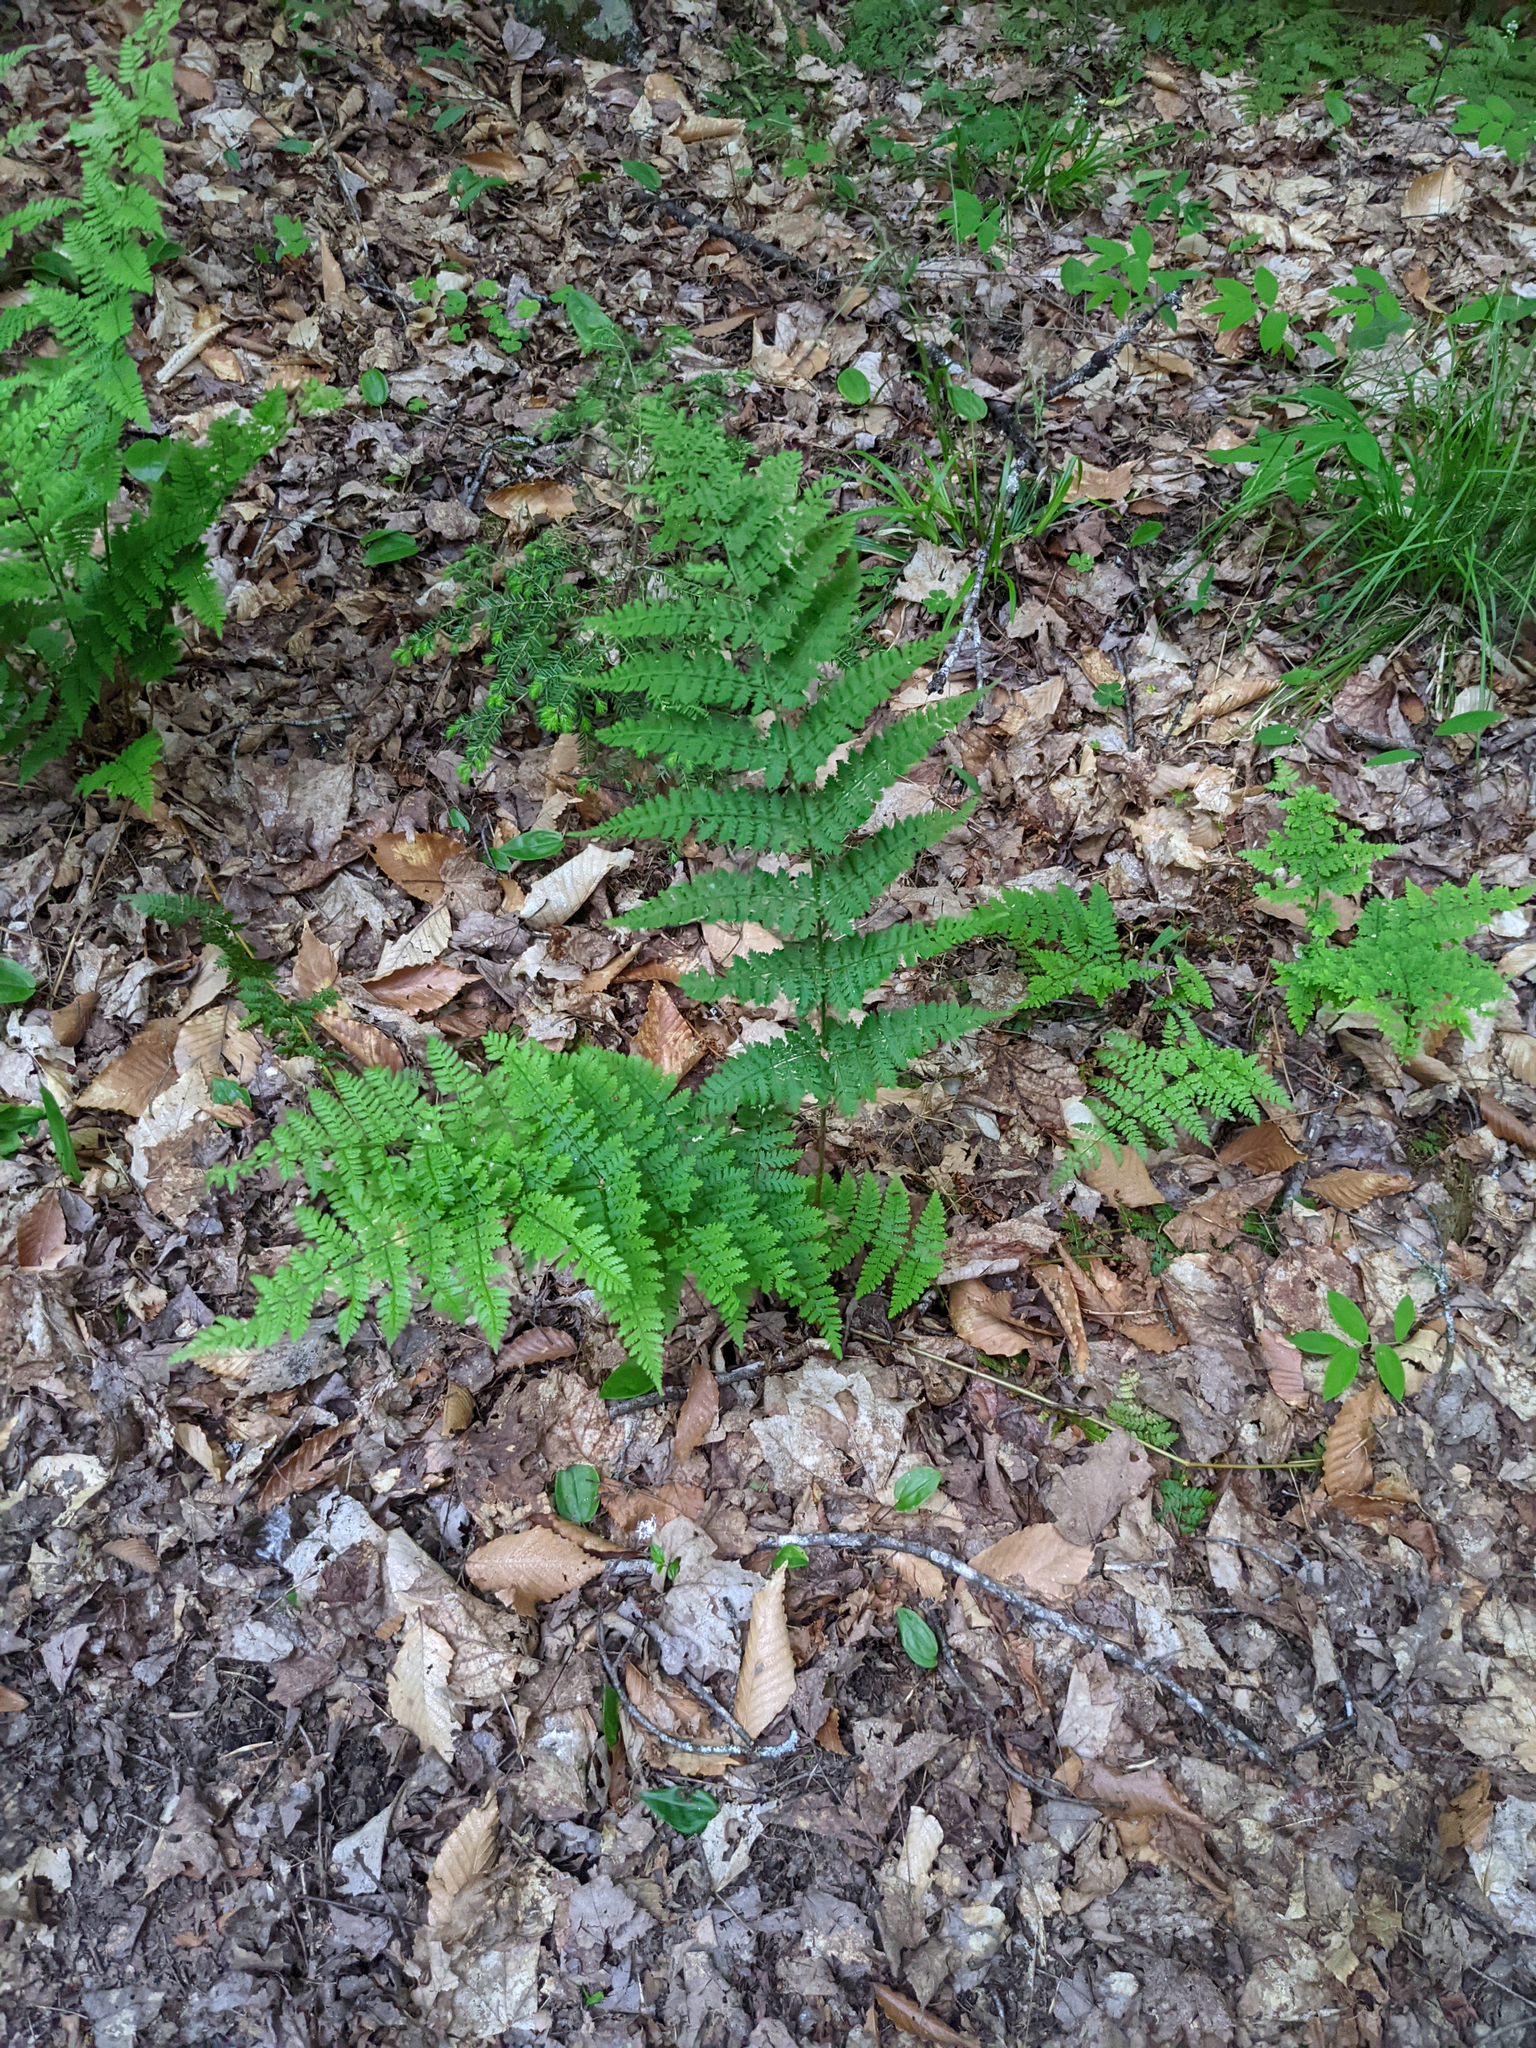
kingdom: Plantae
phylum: Tracheophyta
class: Polypodiopsida
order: Polypodiales
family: Dryopteridaceae
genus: Dryopteris
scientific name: Dryopteris intermedia
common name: Evergreen wood fern
